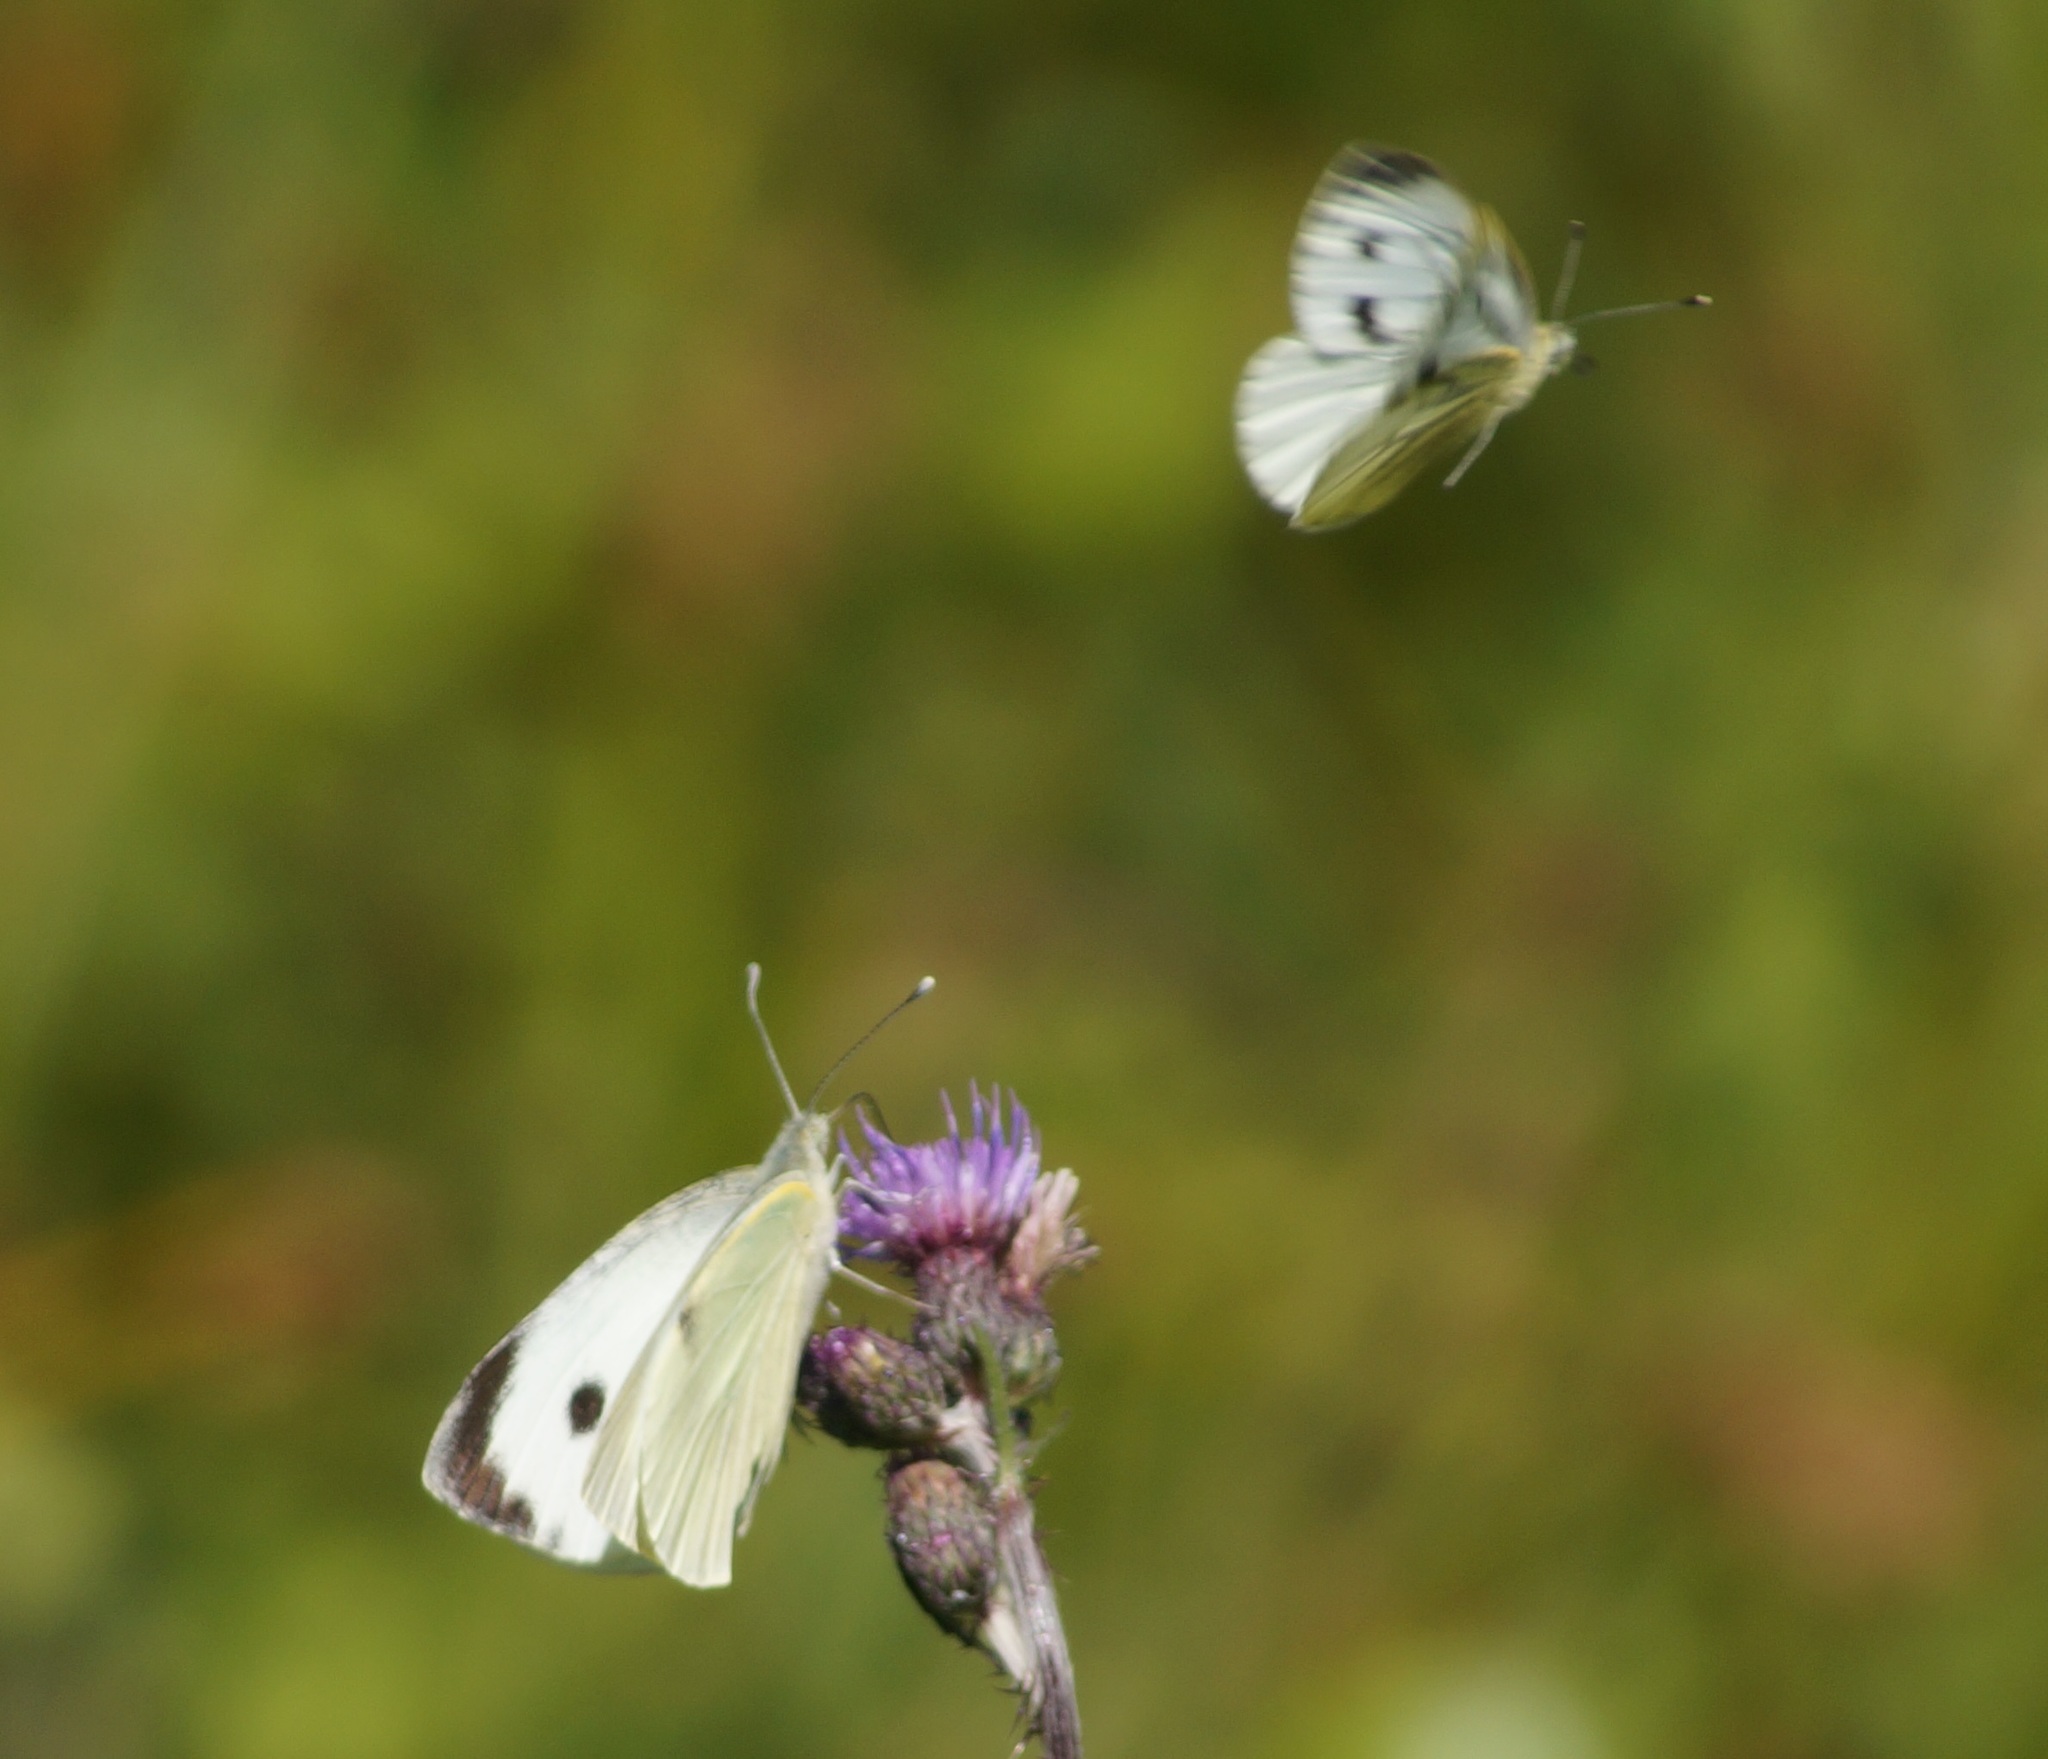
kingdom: Animalia
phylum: Arthropoda
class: Insecta
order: Lepidoptera
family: Pieridae
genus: Pieris
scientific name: Pieris brassicae
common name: Large white
